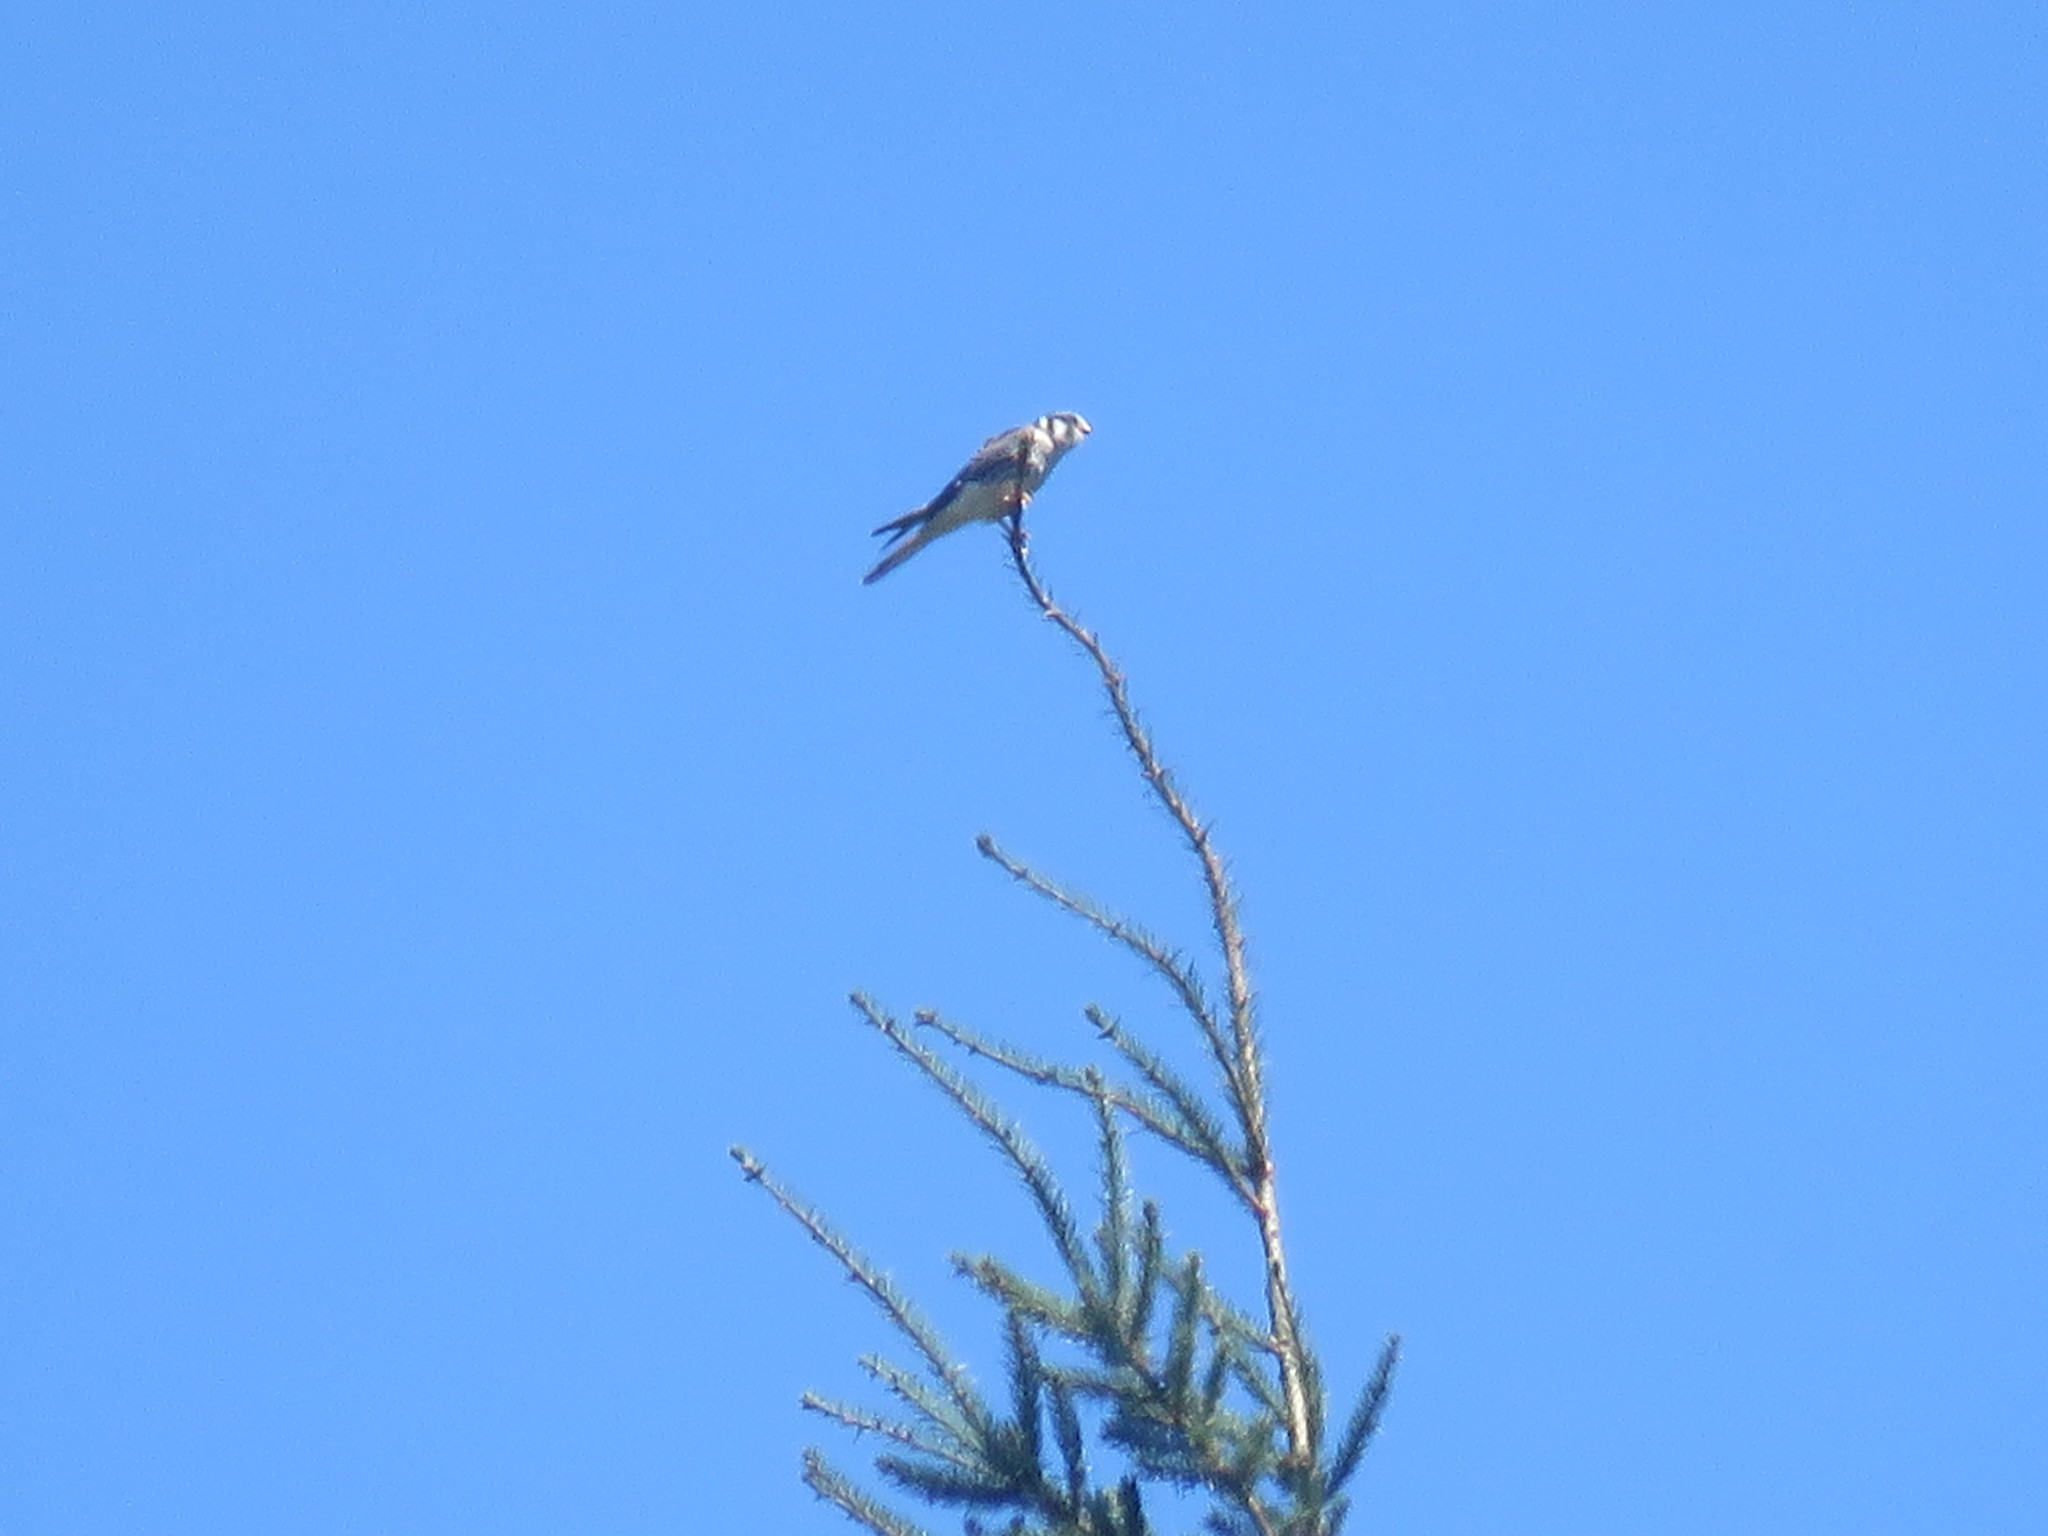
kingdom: Animalia
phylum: Chordata
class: Aves
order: Falconiformes
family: Falconidae
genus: Falco
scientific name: Falco sparverius
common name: American kestrel
